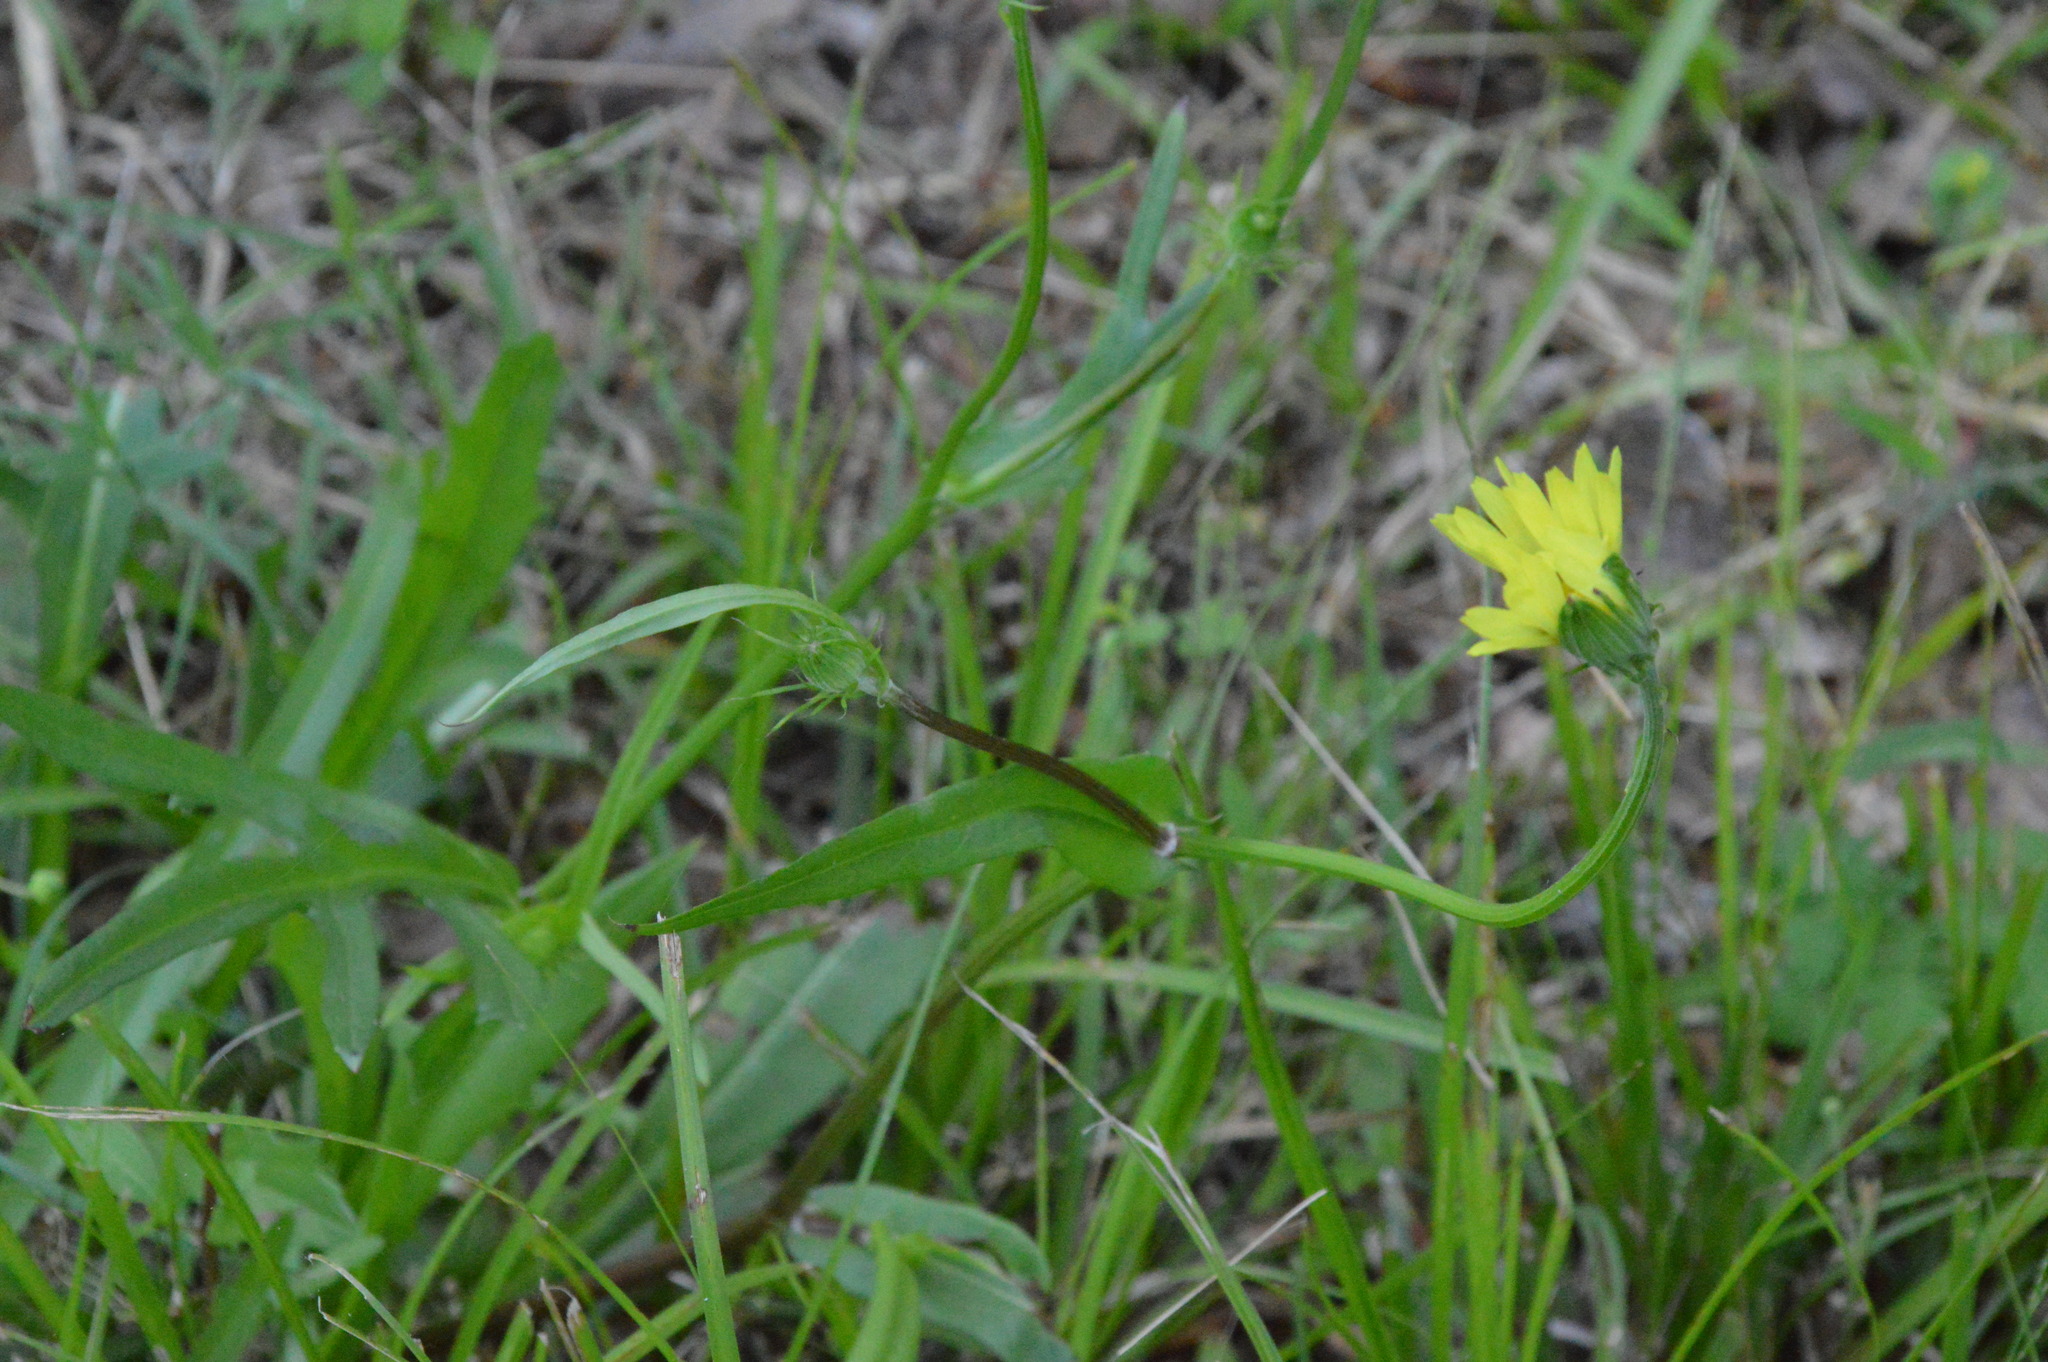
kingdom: Plantae
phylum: Tracheophyta
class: Magnoliopsida
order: Asterales
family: Asteraceae
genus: Pyrrhopappus
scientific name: Pyrrhopappus carolinianus
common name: Carolina desert-chicory
